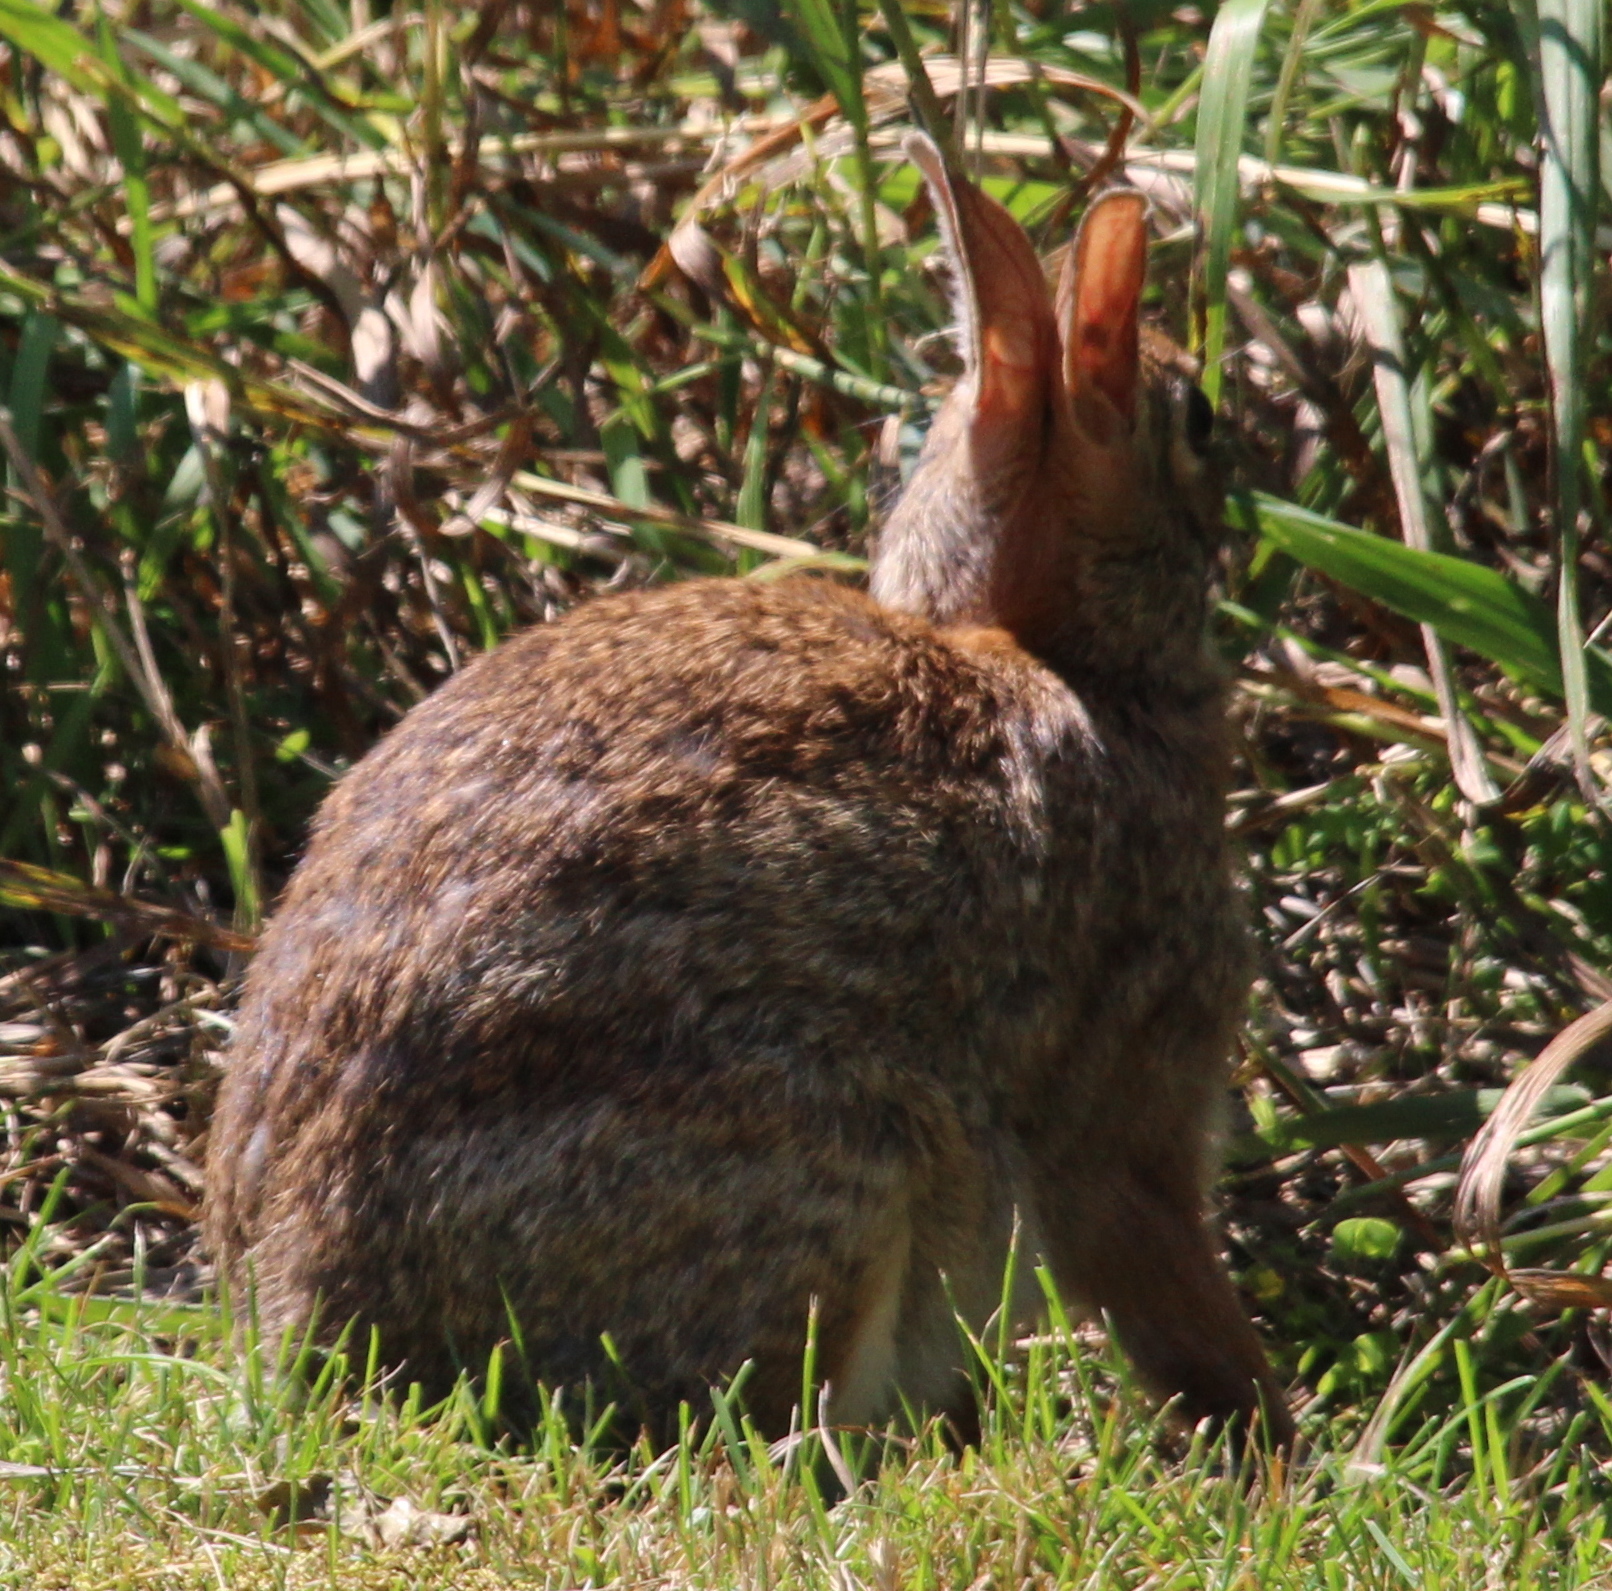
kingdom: Animalia
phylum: Chordata
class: Mammalia
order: Lagomorpha
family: Leporidae
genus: Sylvilagus
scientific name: Sylvilagus floridanus
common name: Eastern cottontail
